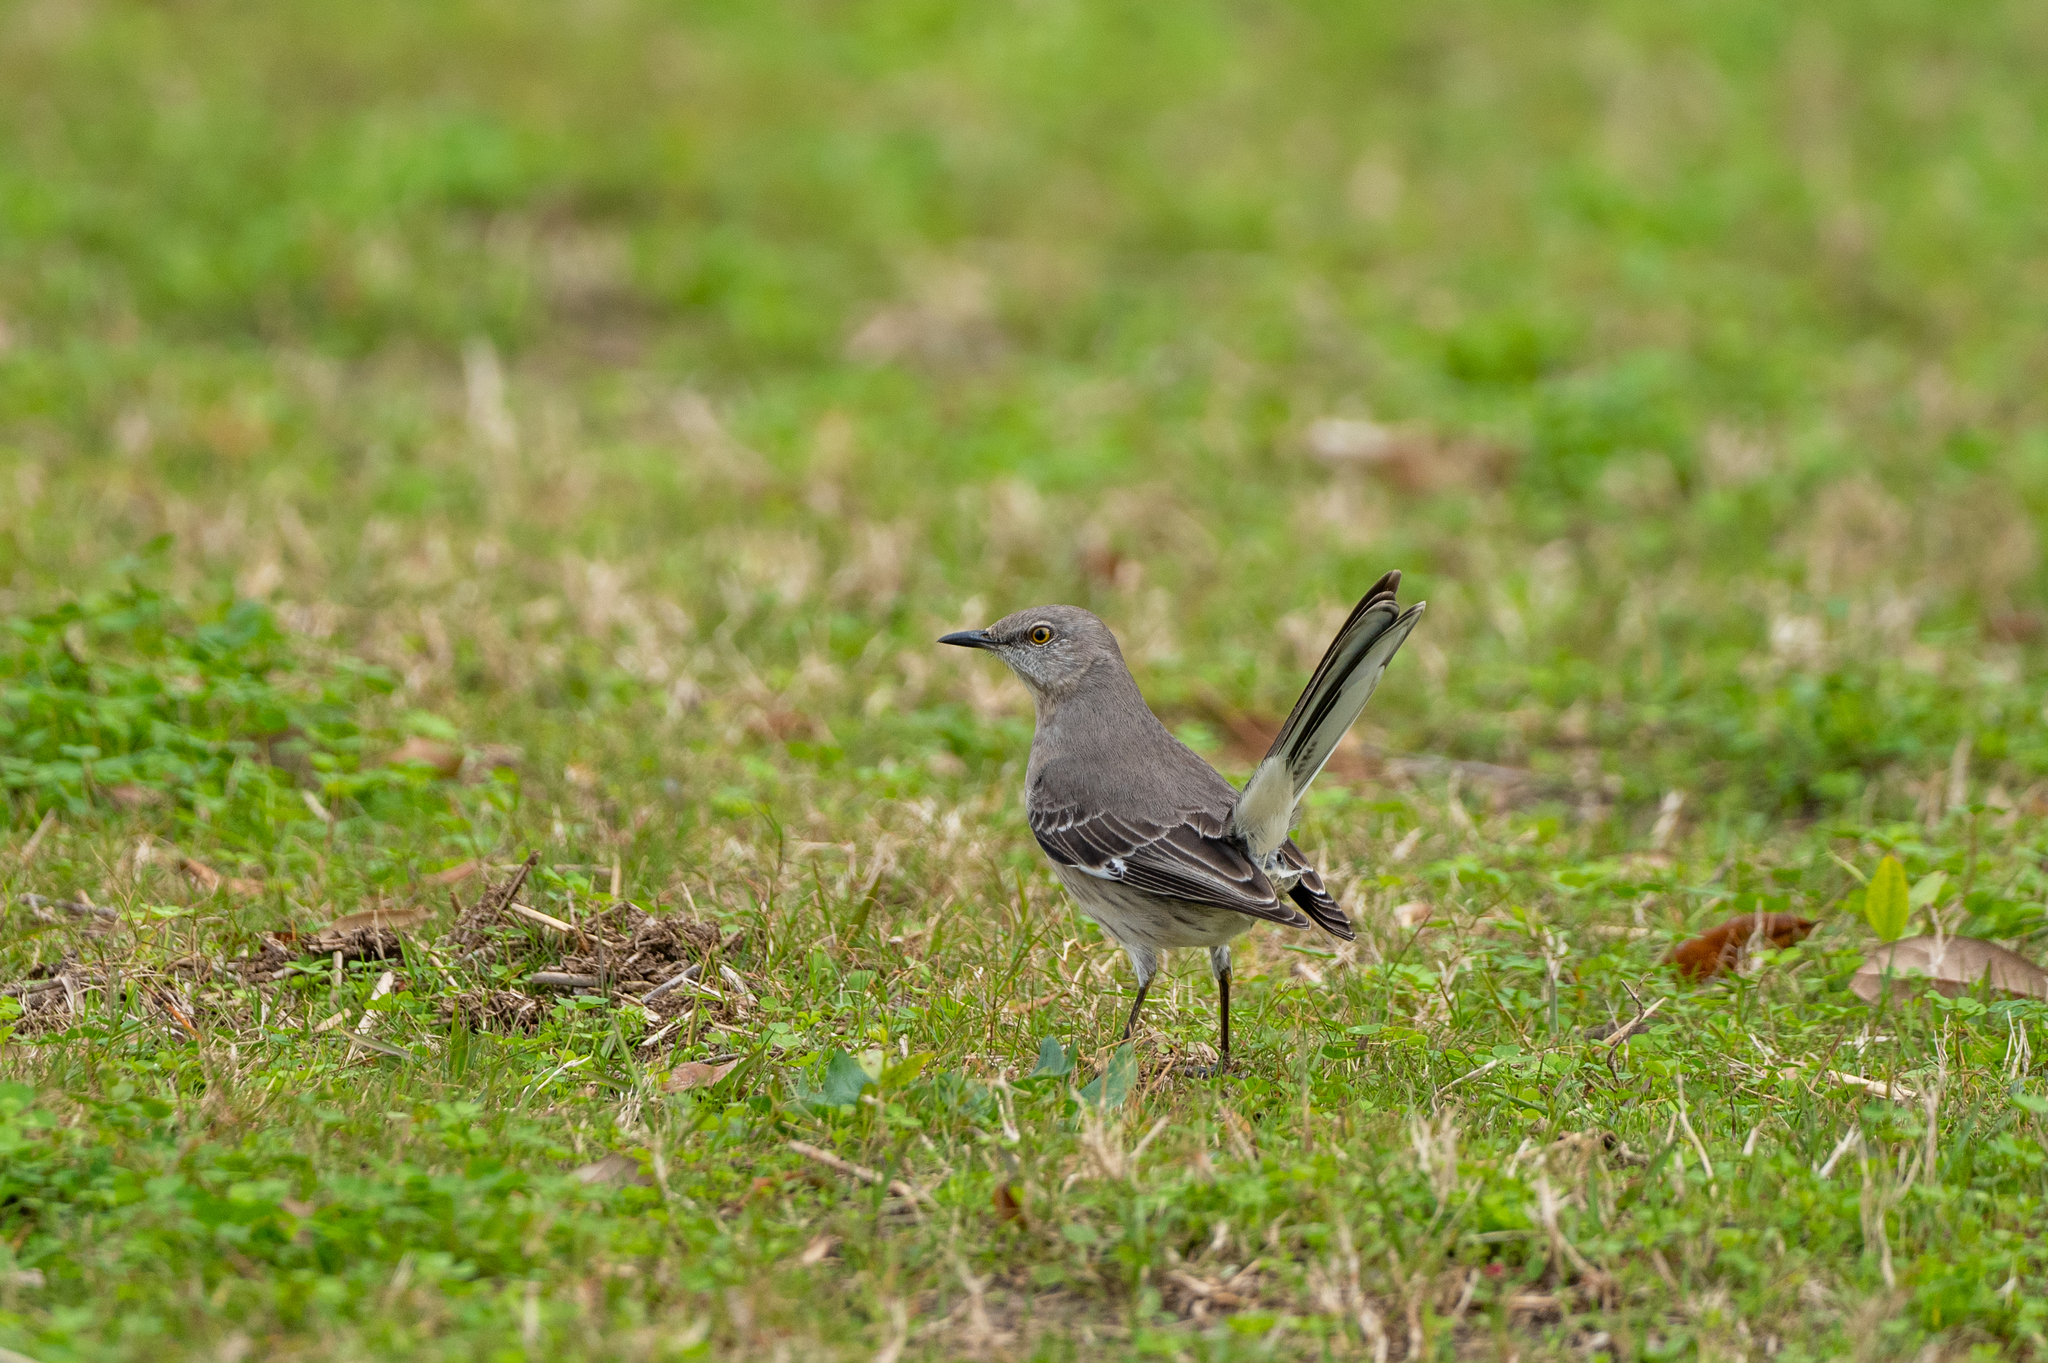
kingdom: Animalia
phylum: Chordata
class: Aves
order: Passeriformes
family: Mimidae
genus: Mimus
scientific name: Mimus polyglottos
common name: Northern mockingbird
